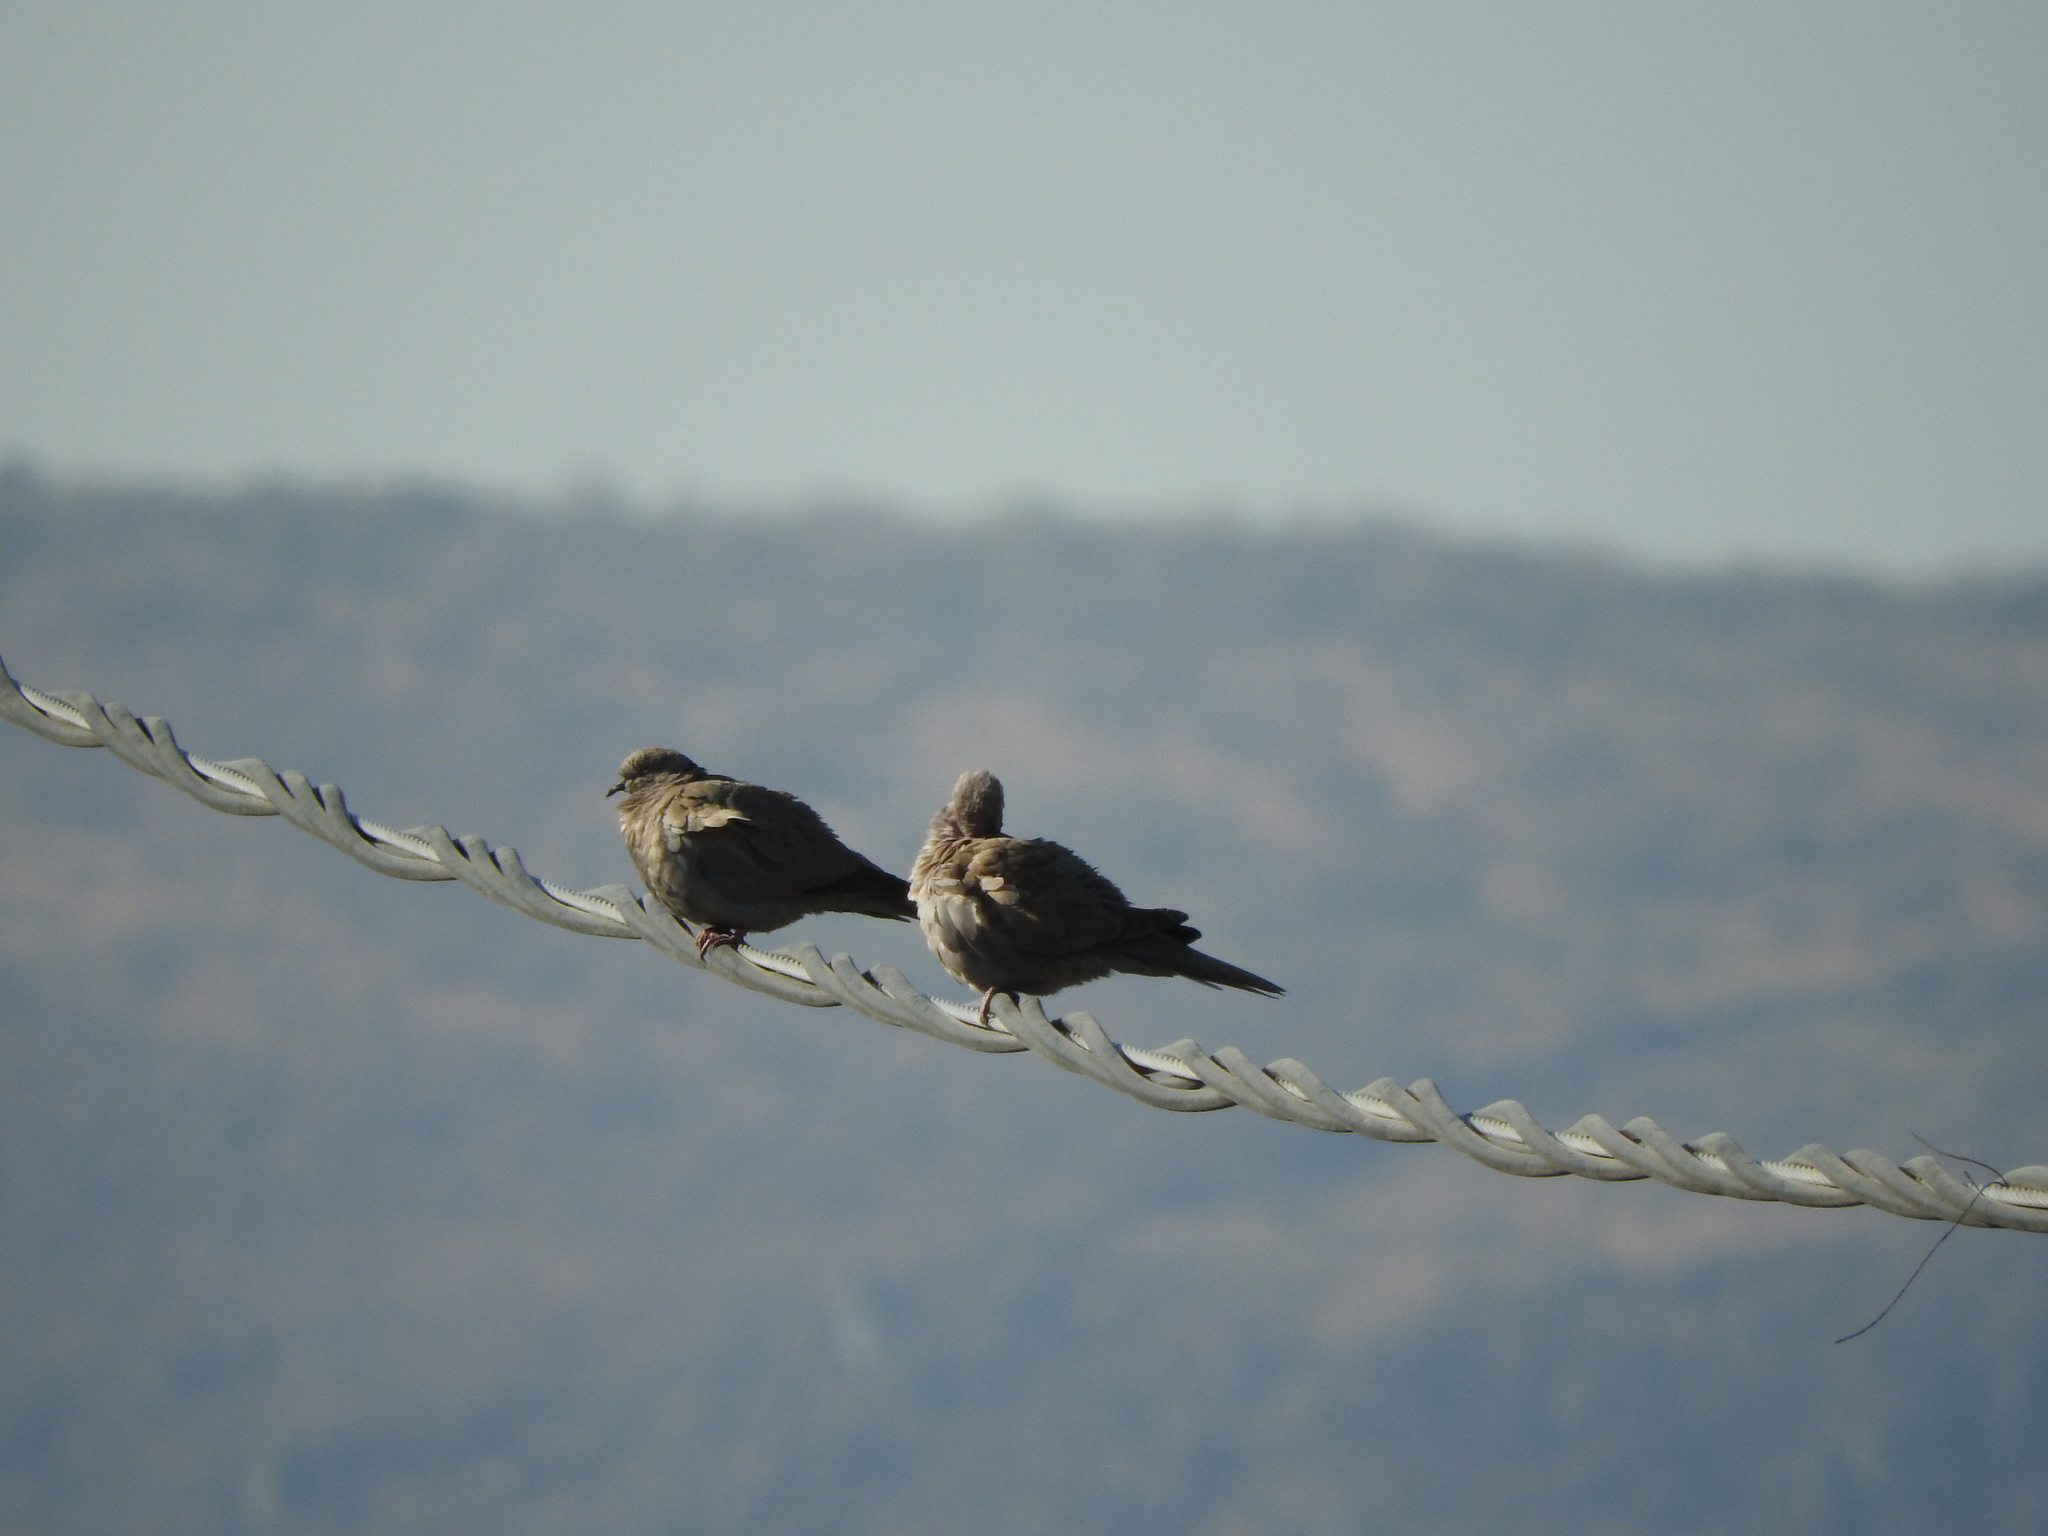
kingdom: Animalia
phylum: Chordata
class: Aves
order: Columbiformes
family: Columbidae
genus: Streptopelia
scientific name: Streptopelia decaocto
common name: Eurasian collared dove
